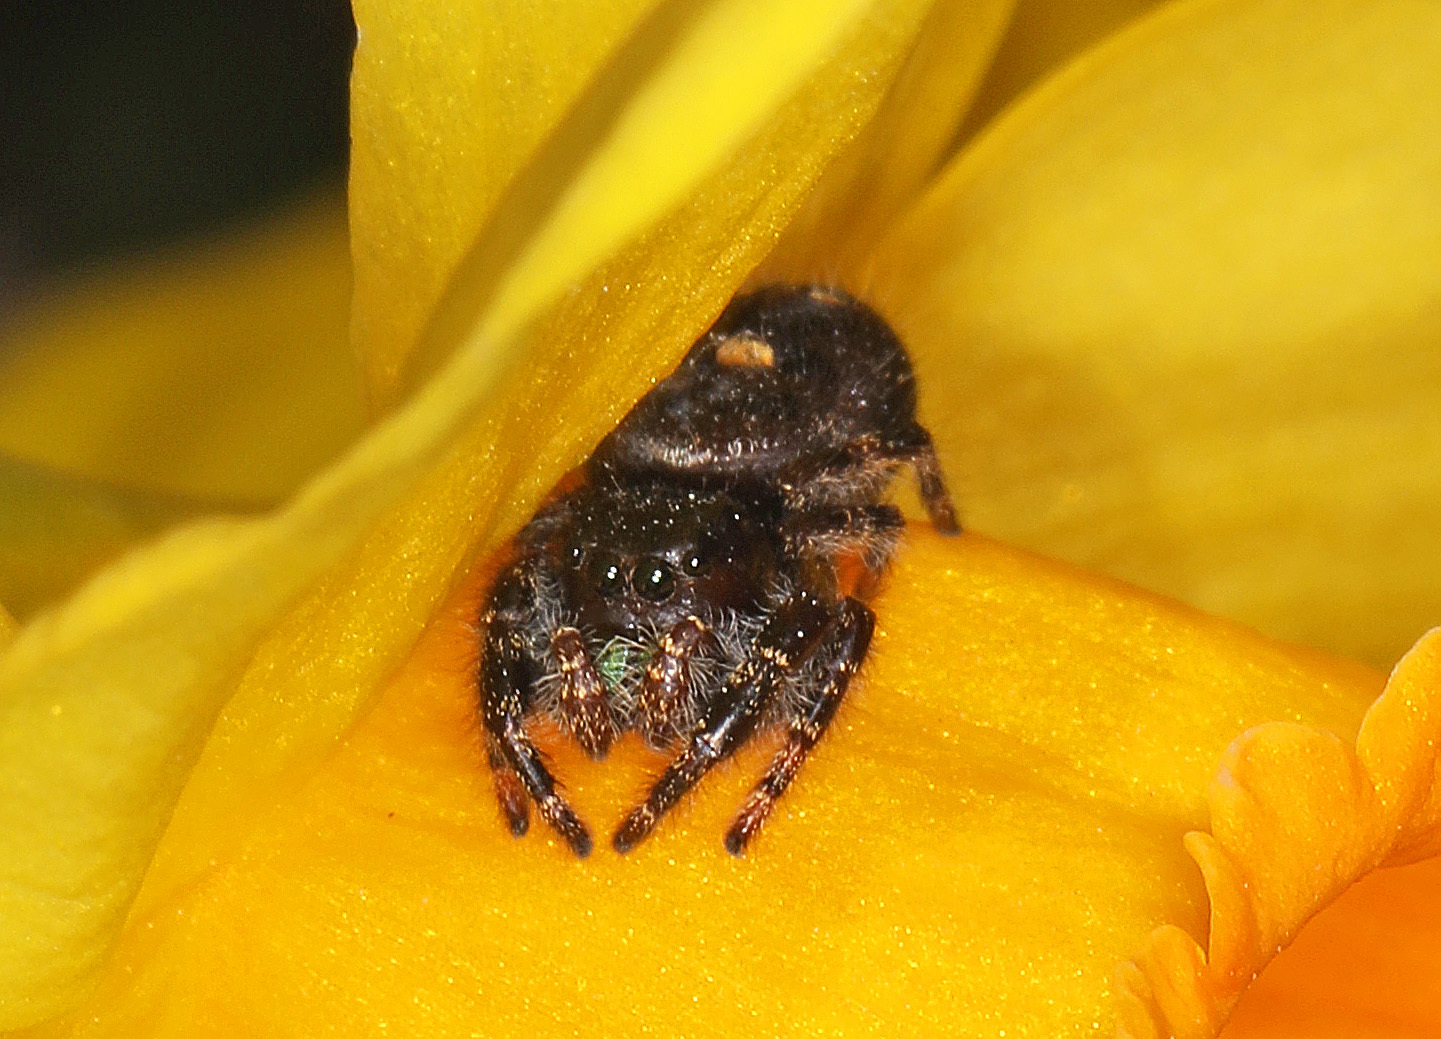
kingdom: Animalia
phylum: Arthropoda
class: Arachnida
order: Araneae
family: Salticidae
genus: Phidippus
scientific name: Phidippus audax
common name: Bold jumper
